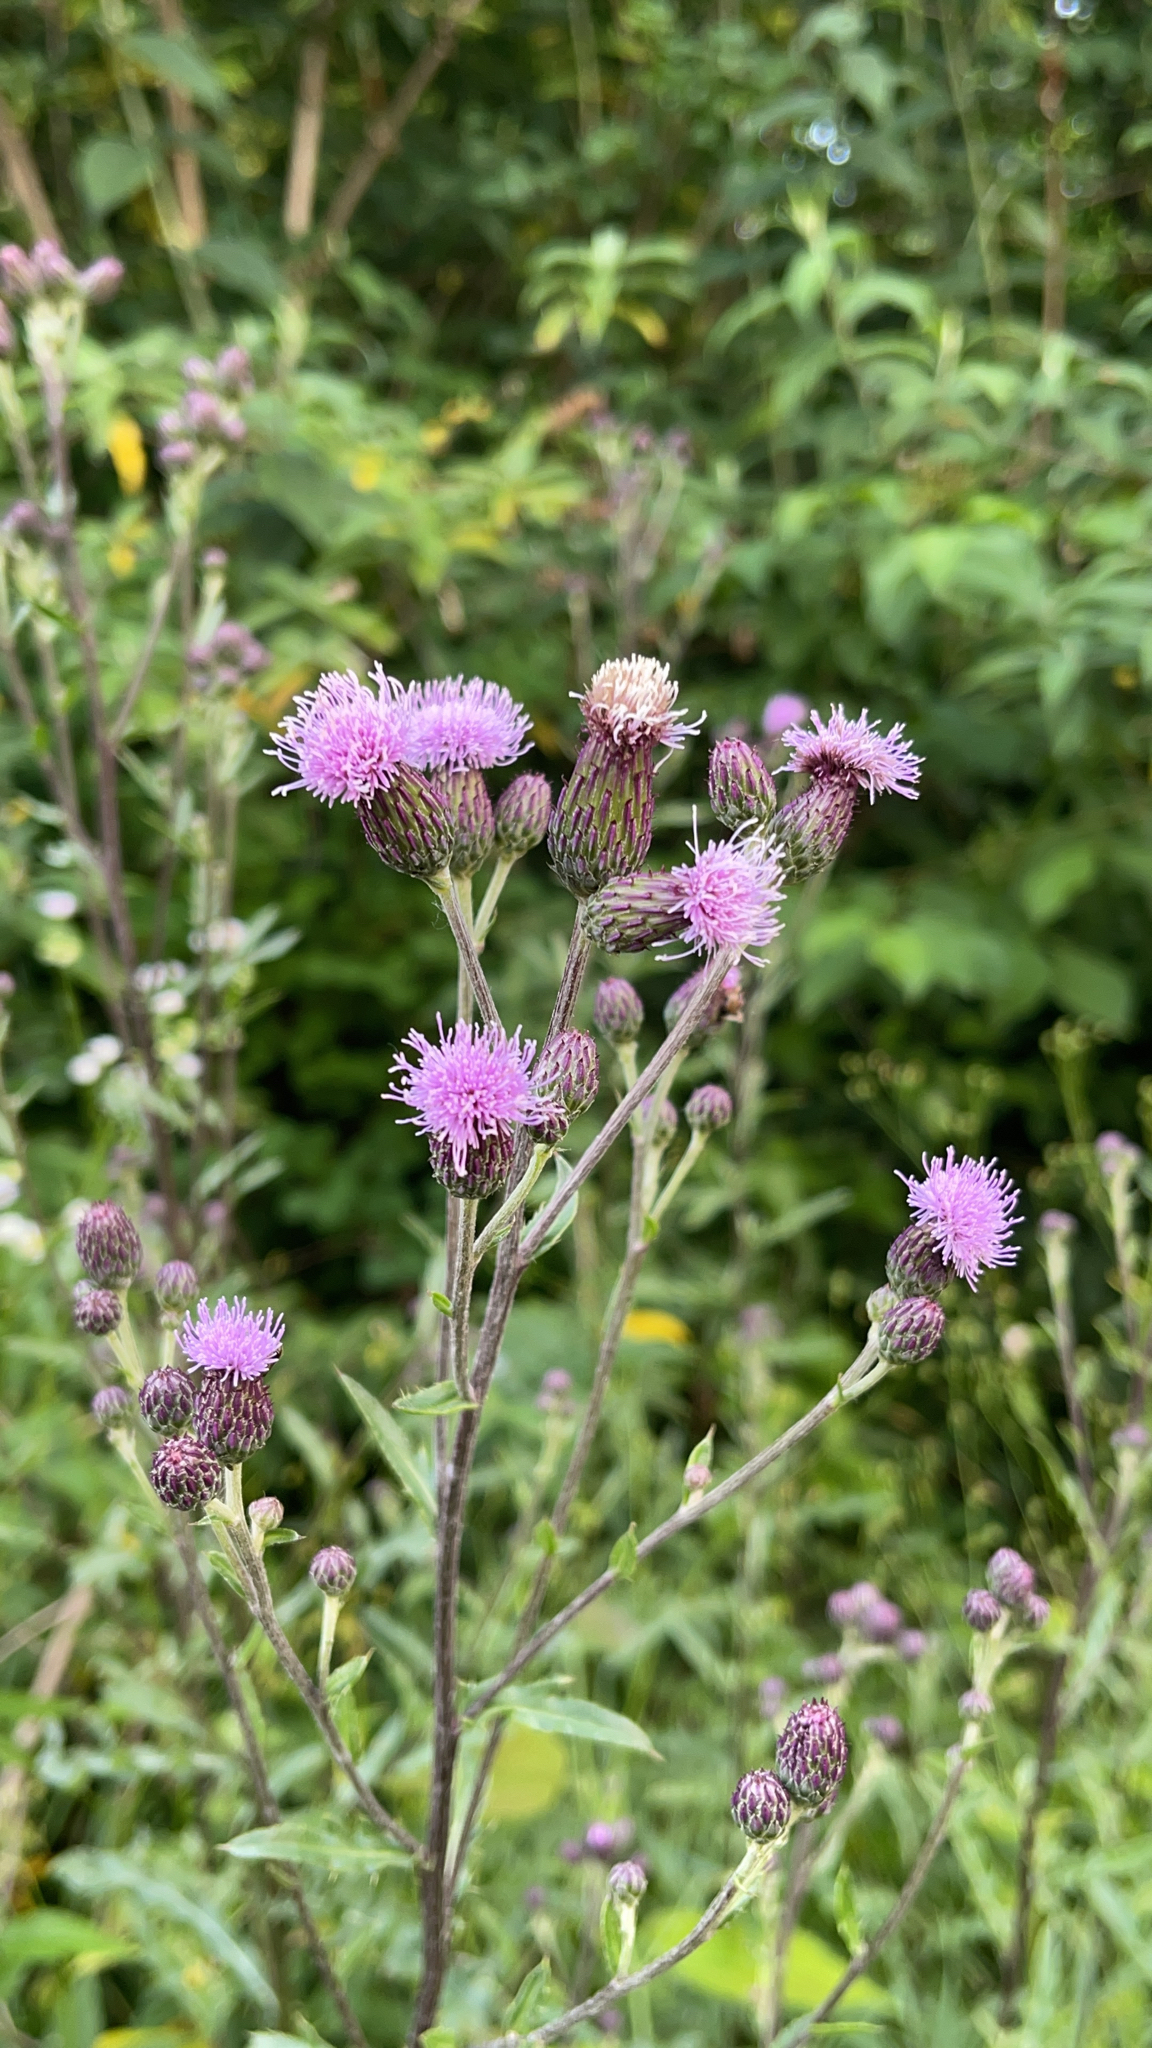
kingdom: Plantae
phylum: Tracheophyta
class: Magnoliopsida
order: Asterales
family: Asteraceae
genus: Cirsium
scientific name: Cirsium arvense
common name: Creeping thistle
